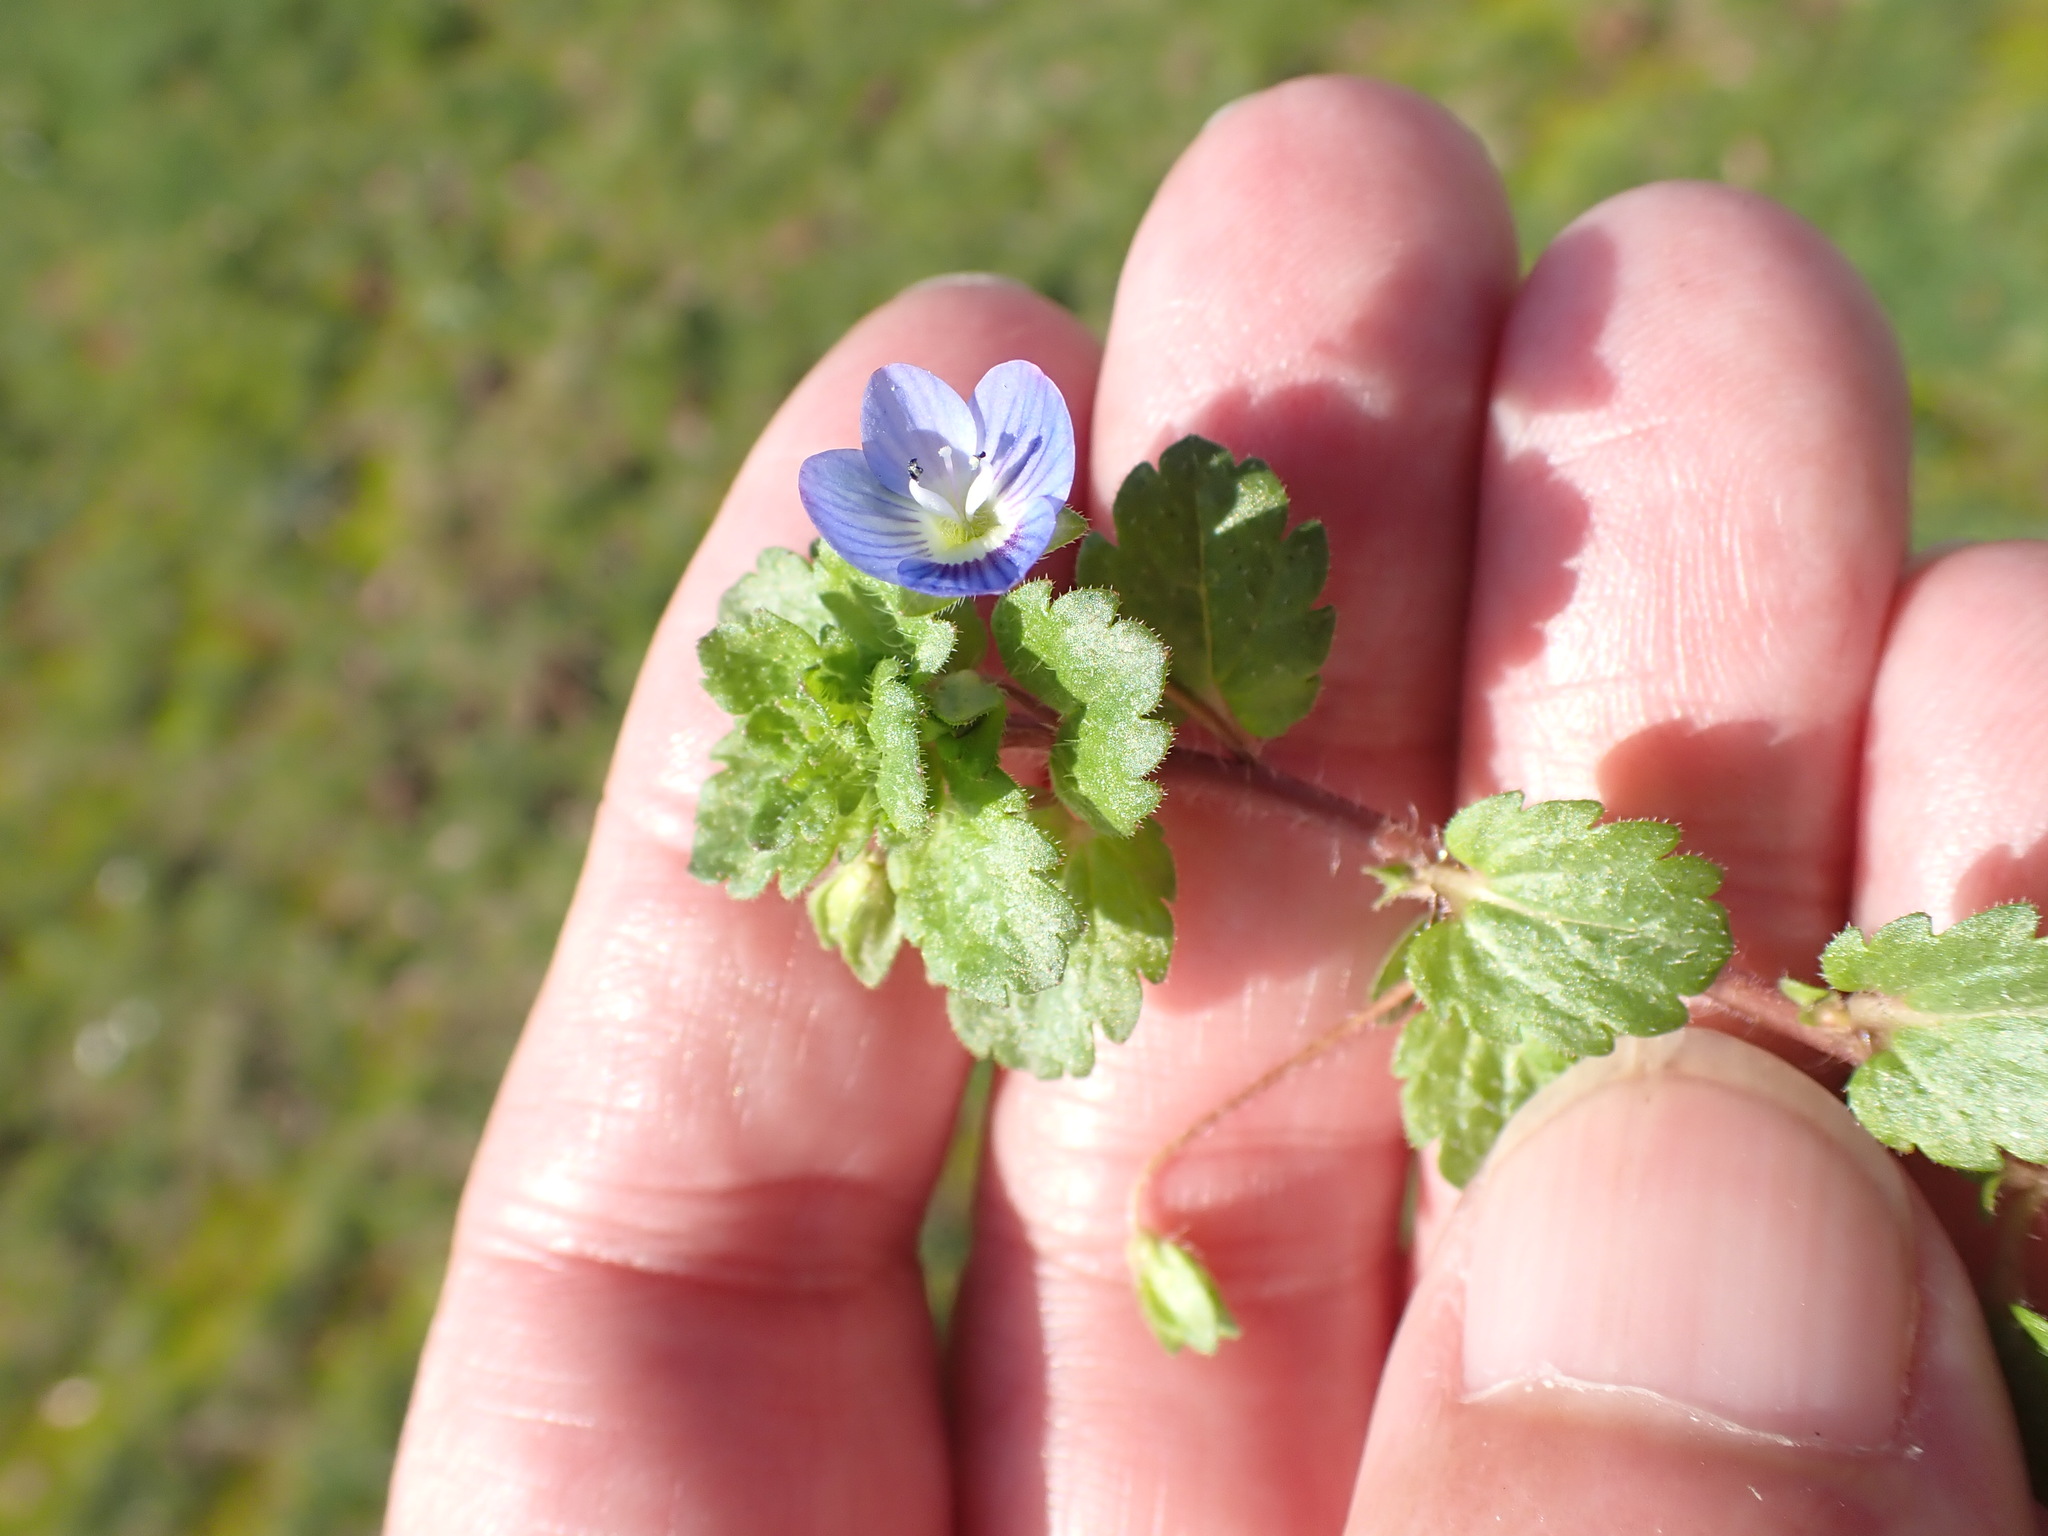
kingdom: Plantae
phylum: Tracheophyta
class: Magnoliopsida
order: Lamiales
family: Plantaginaceae
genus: Veronica
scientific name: Veronica persica
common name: Common field-speedwell
